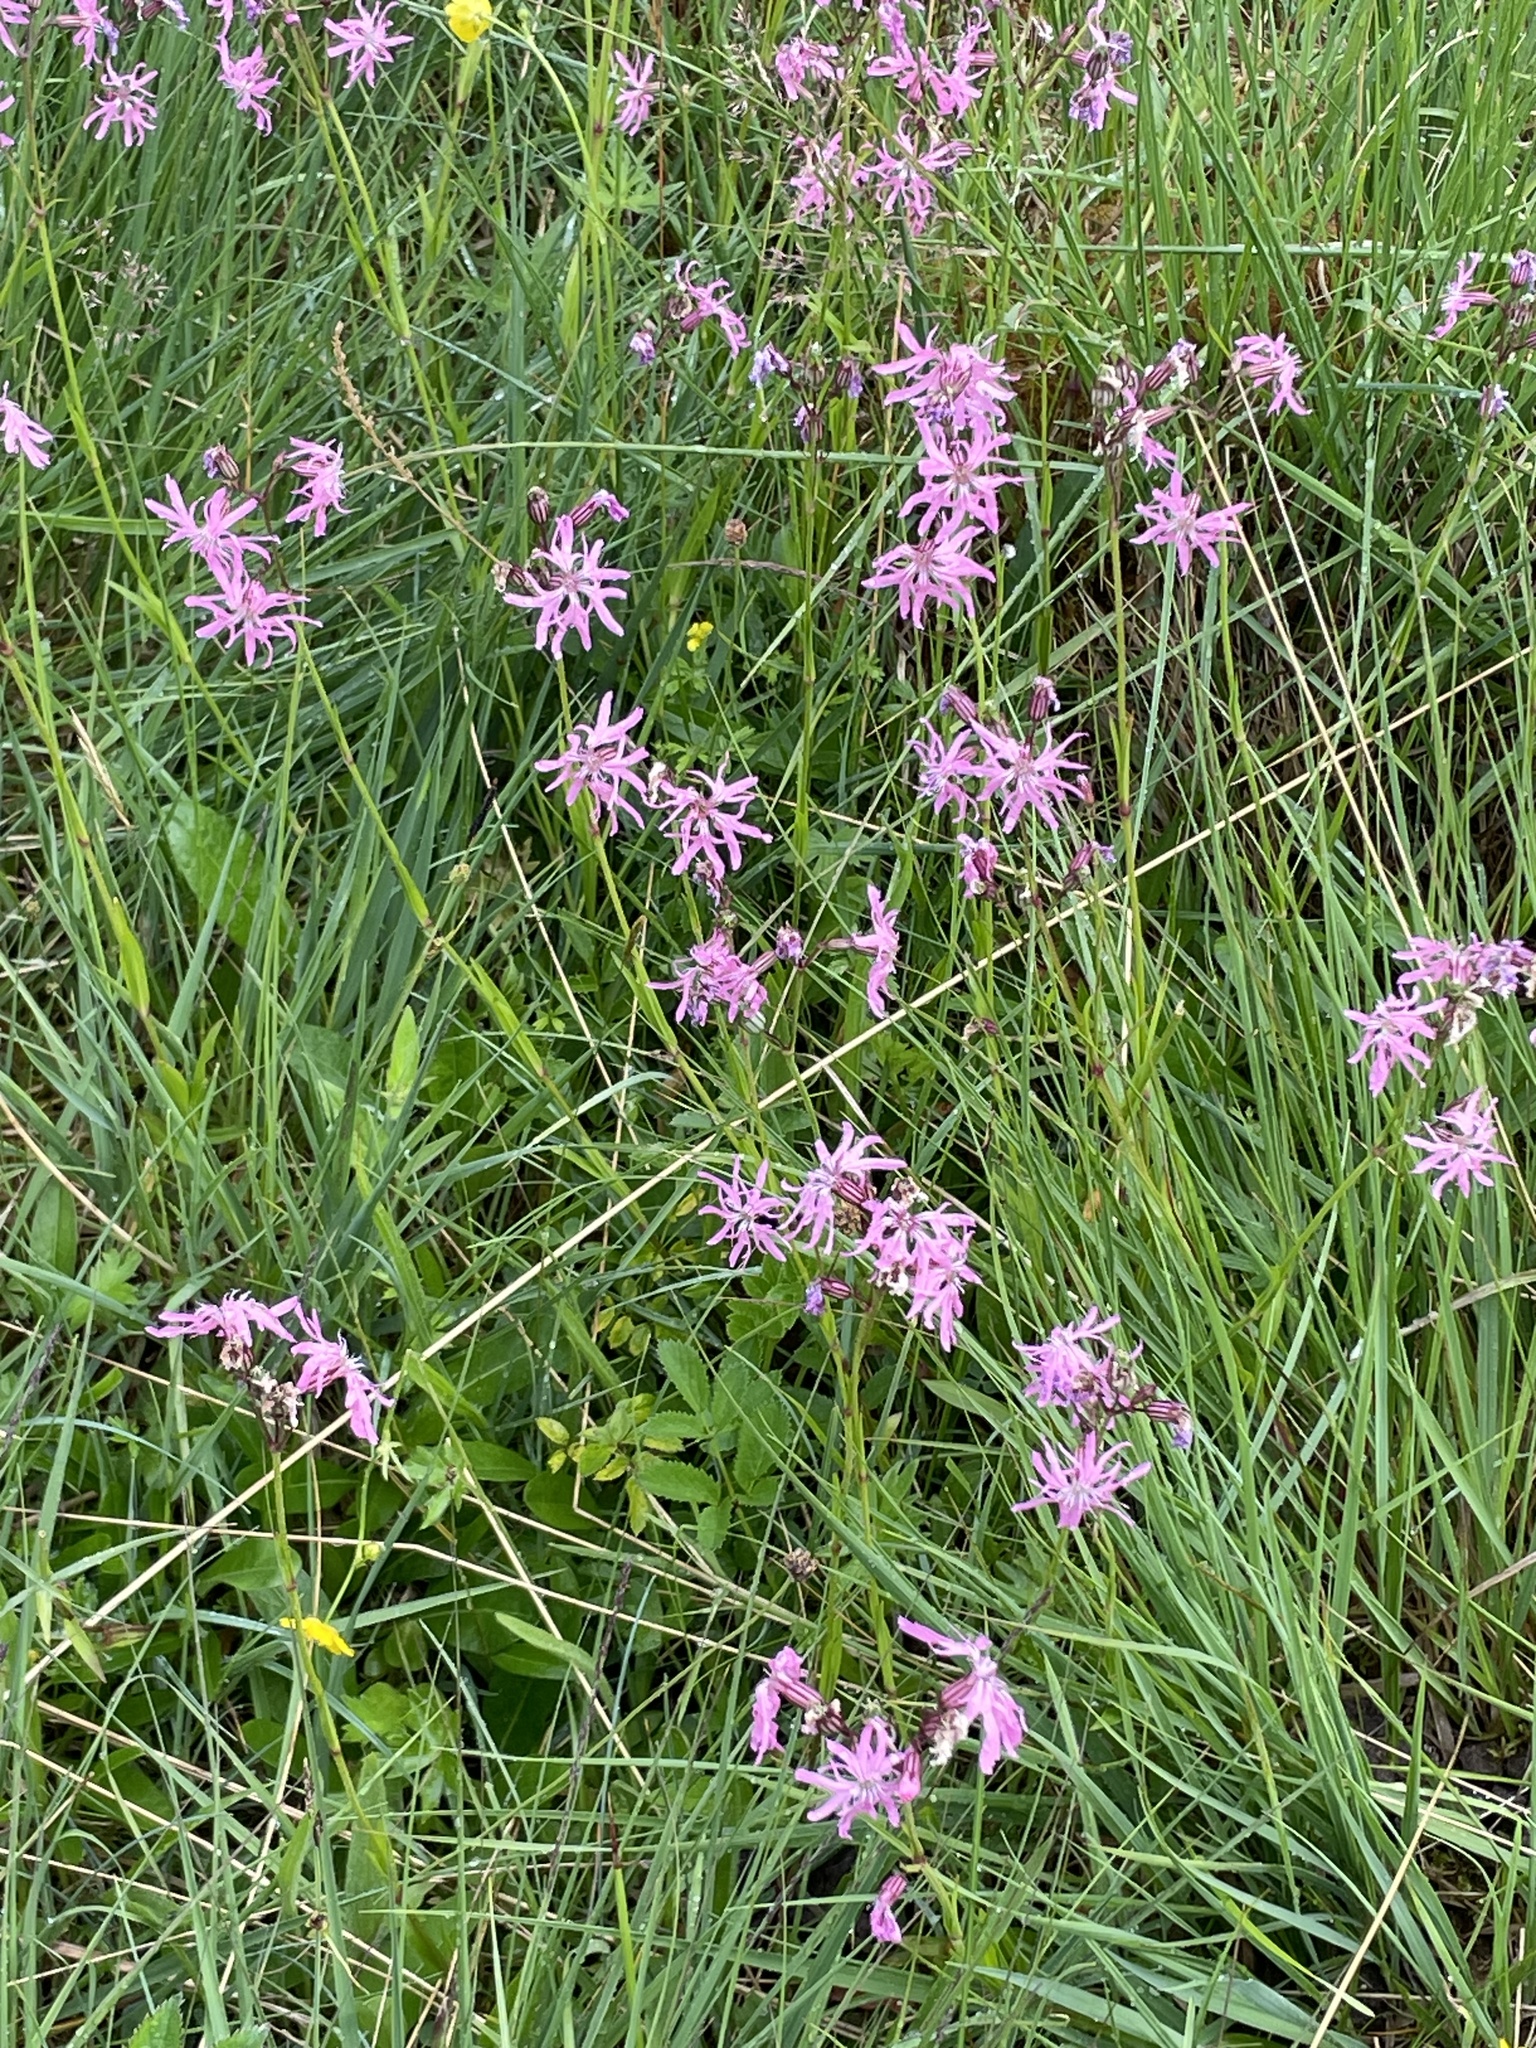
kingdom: Plantae
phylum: Tracheophyta
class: Magnoliopsida
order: Caryophyllales
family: Caryophyllaceae
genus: Silene
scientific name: Silene flos-cuculi
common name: Ragged-robin
